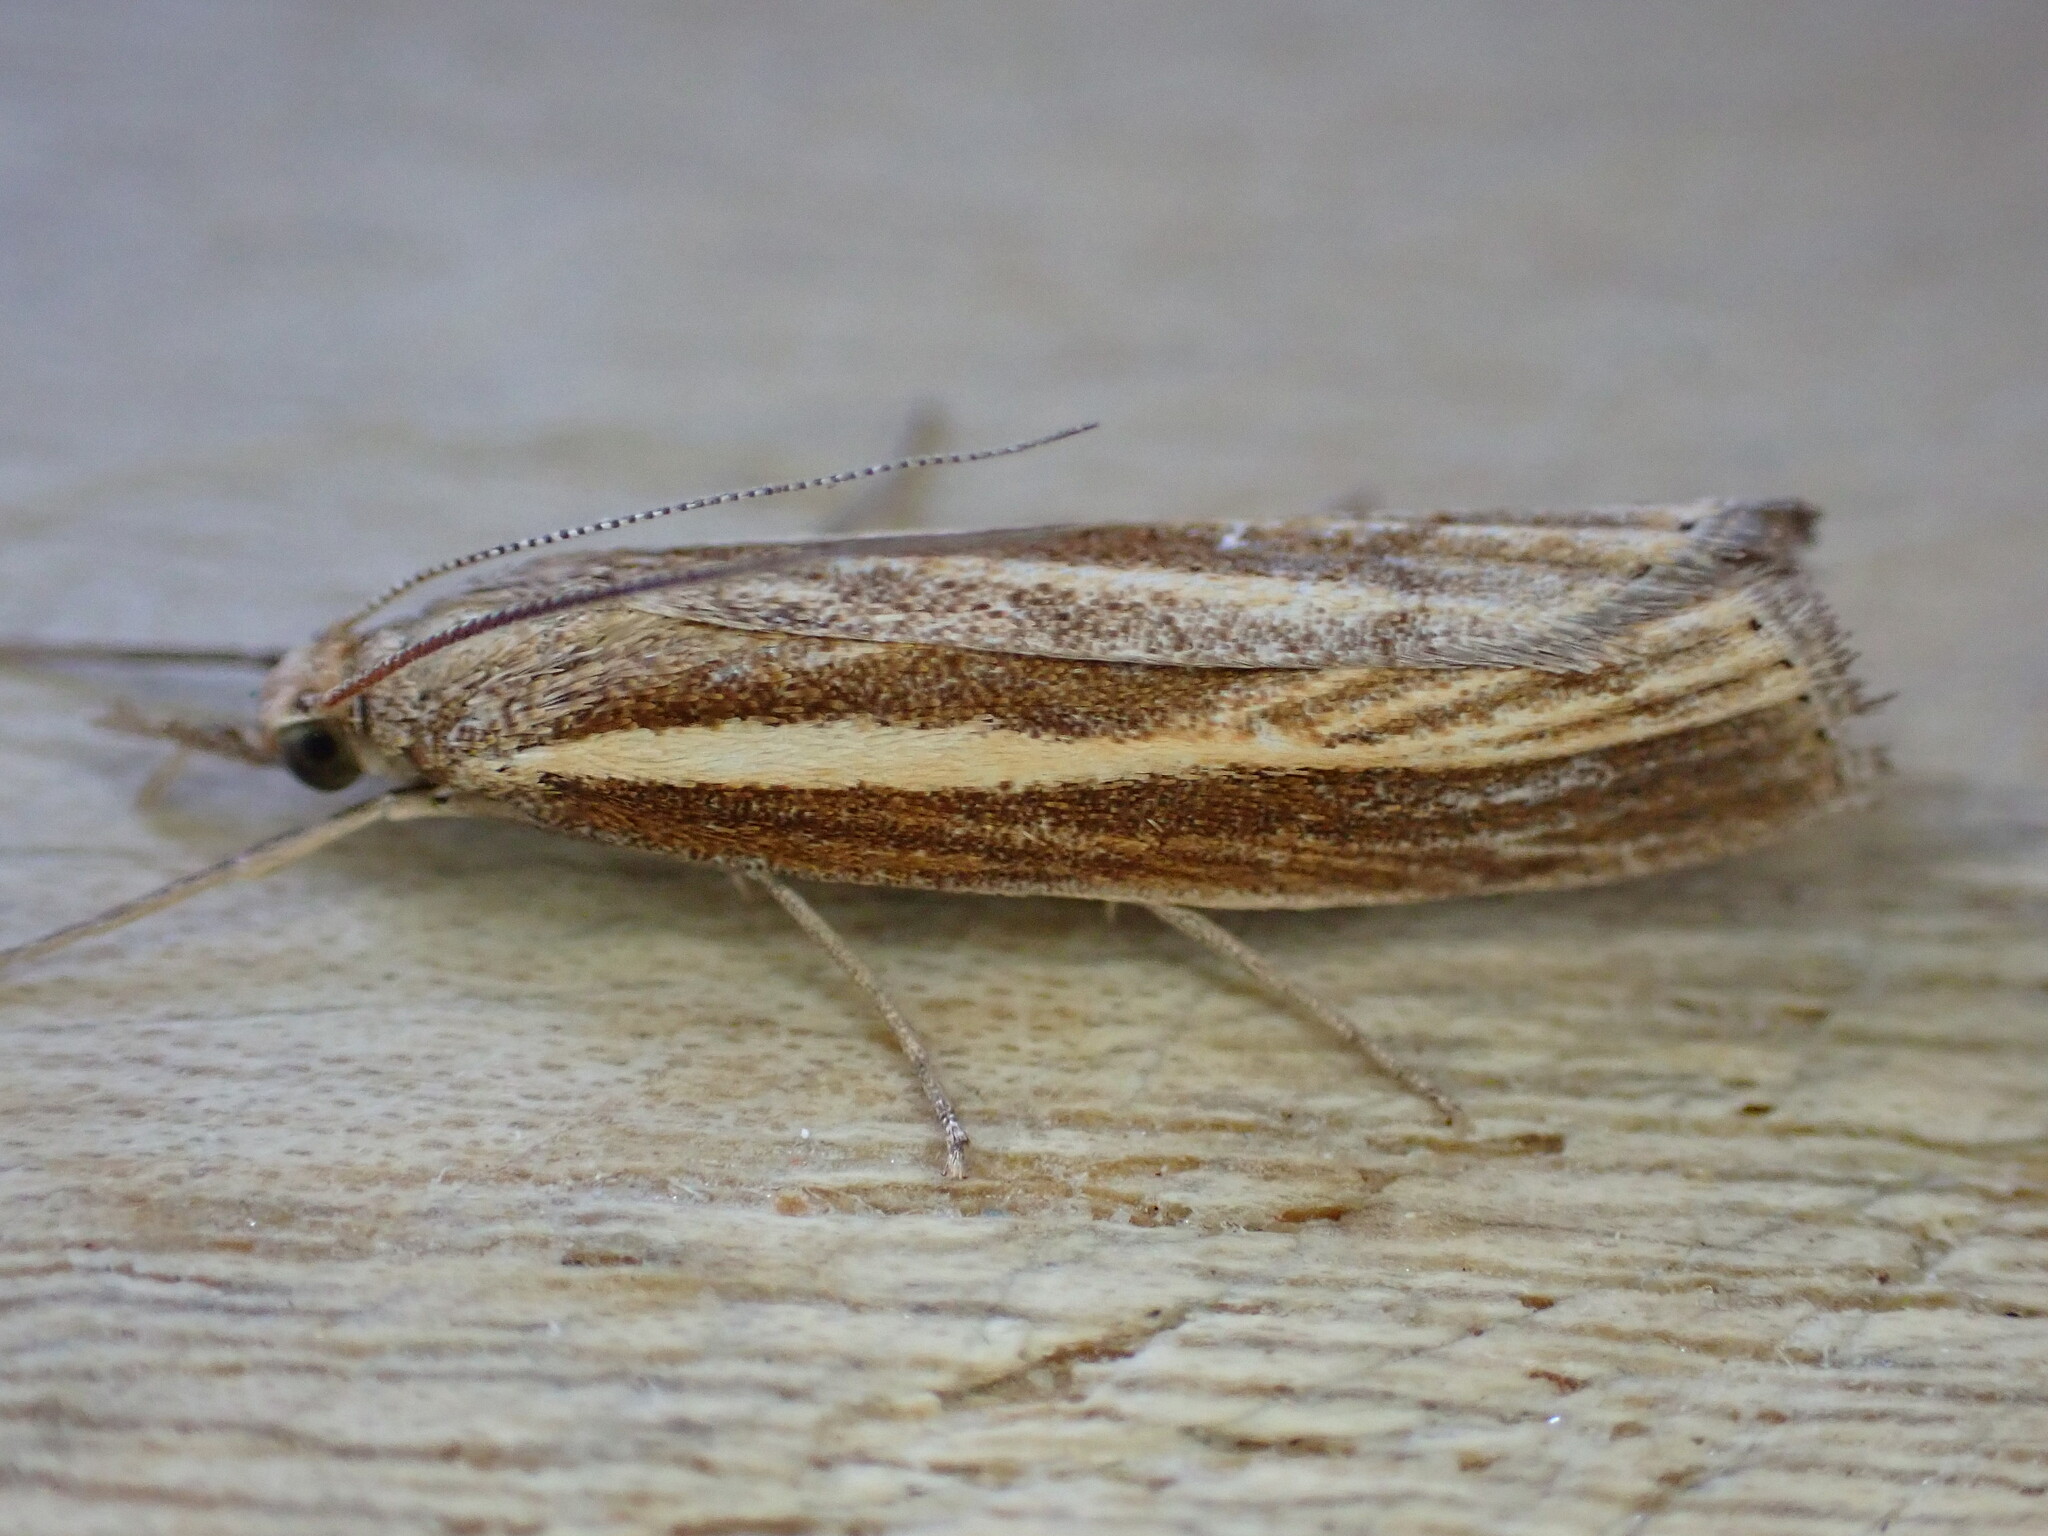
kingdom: Animalia
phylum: Arthropoda
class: Insecta
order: Lepidoptera
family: Crambidae
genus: Agriphila
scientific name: Agriphila tristellus
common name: Common grass-veneer
